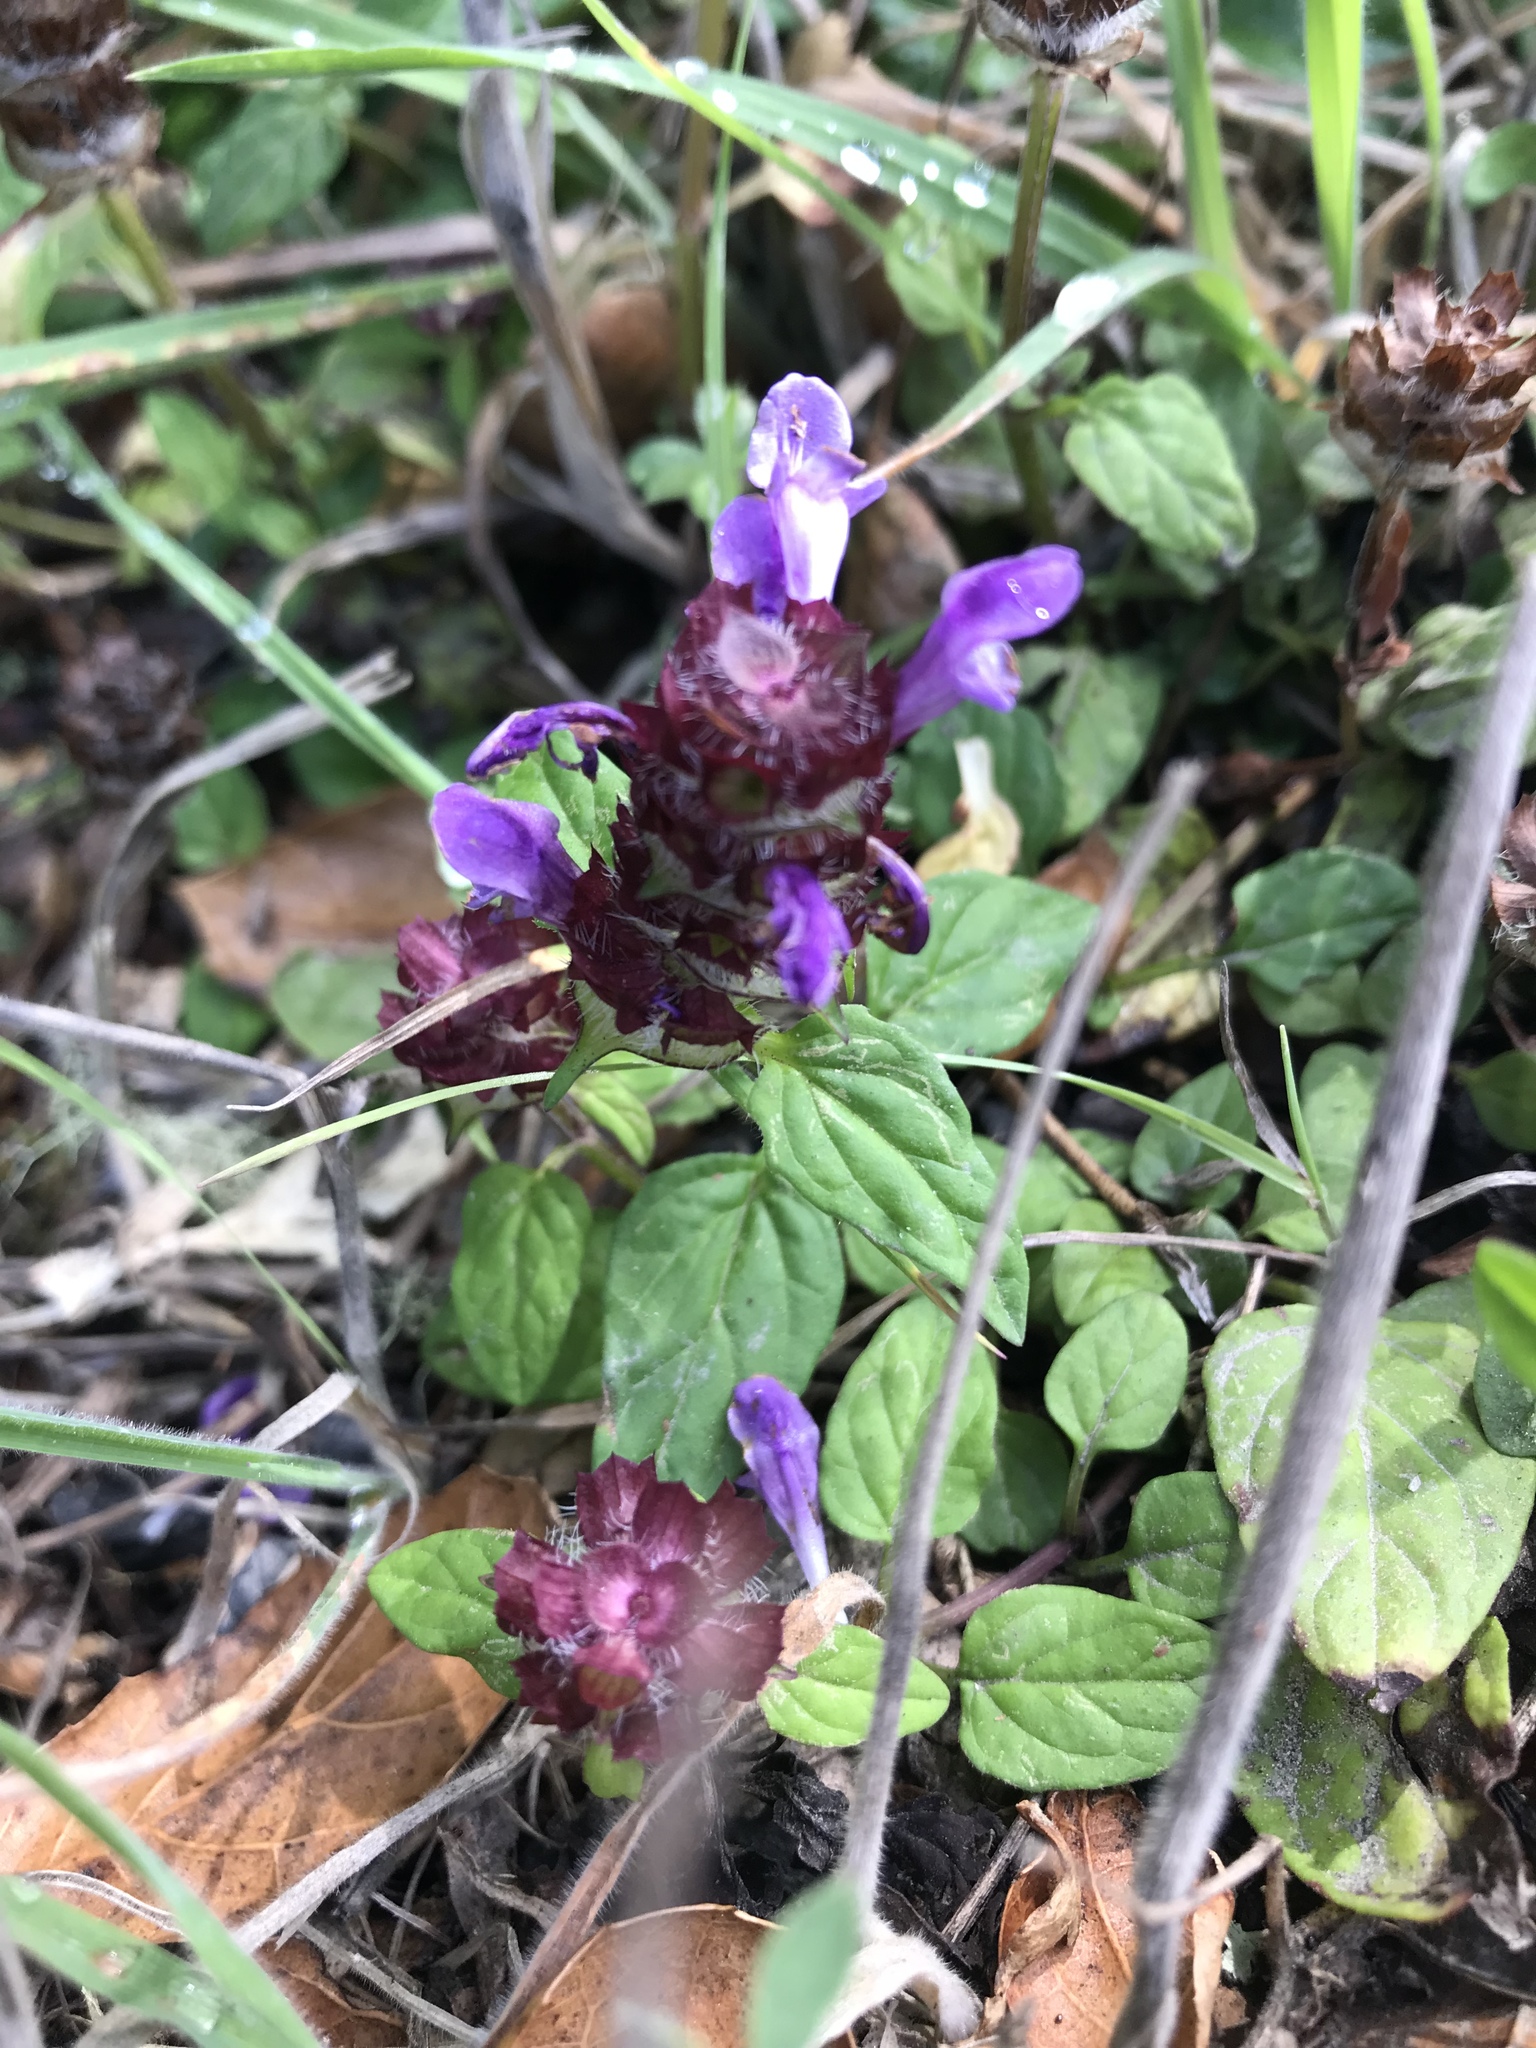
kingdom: Plantae
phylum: Tracheophyta
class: Magnoliopsida
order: Lamiales
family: Lamiaceae
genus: Prunella
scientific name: Prunella vulgaris
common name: Heal-all
